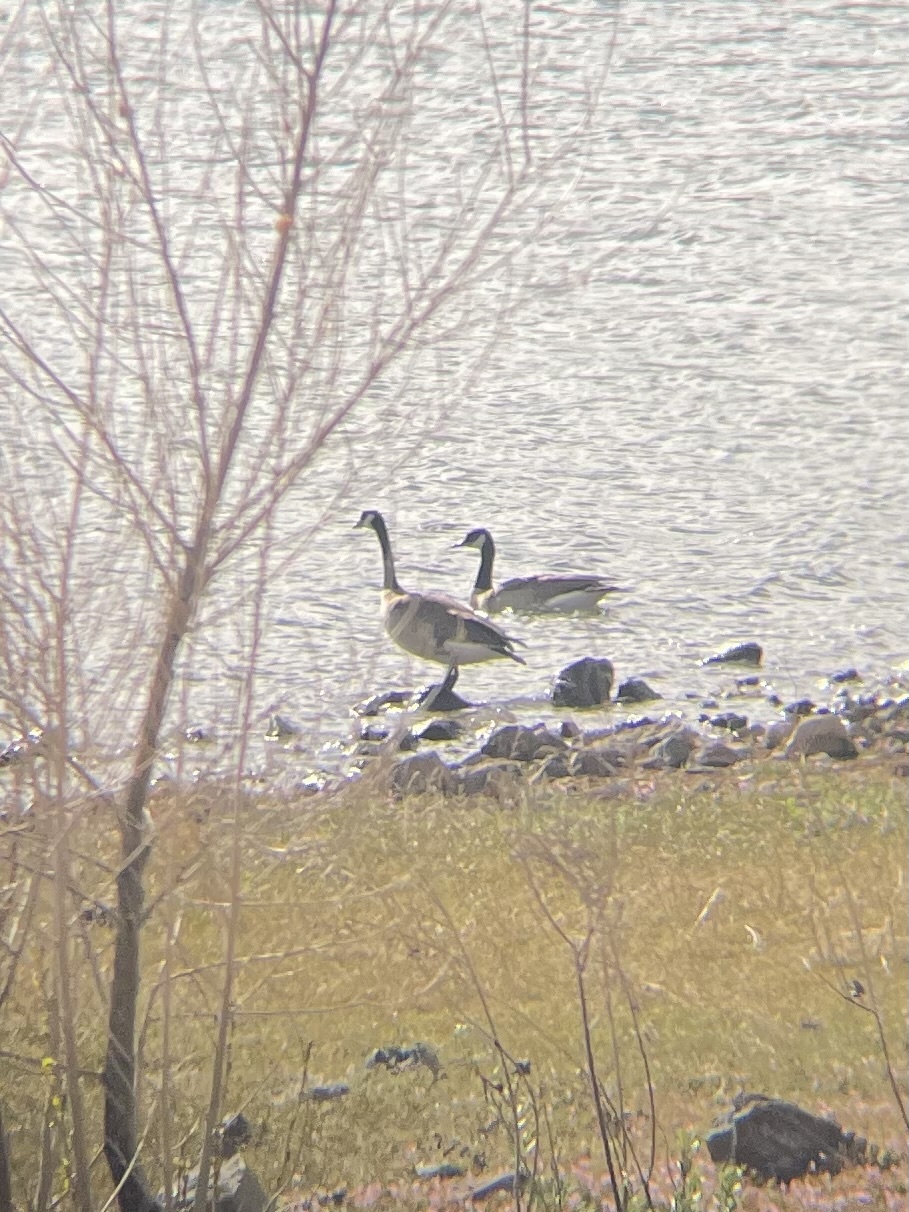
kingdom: Animalia
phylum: Chordata
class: Aves
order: Anseriformes
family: Anatidae
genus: Branta
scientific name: Branta canadensis
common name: Canada goose
